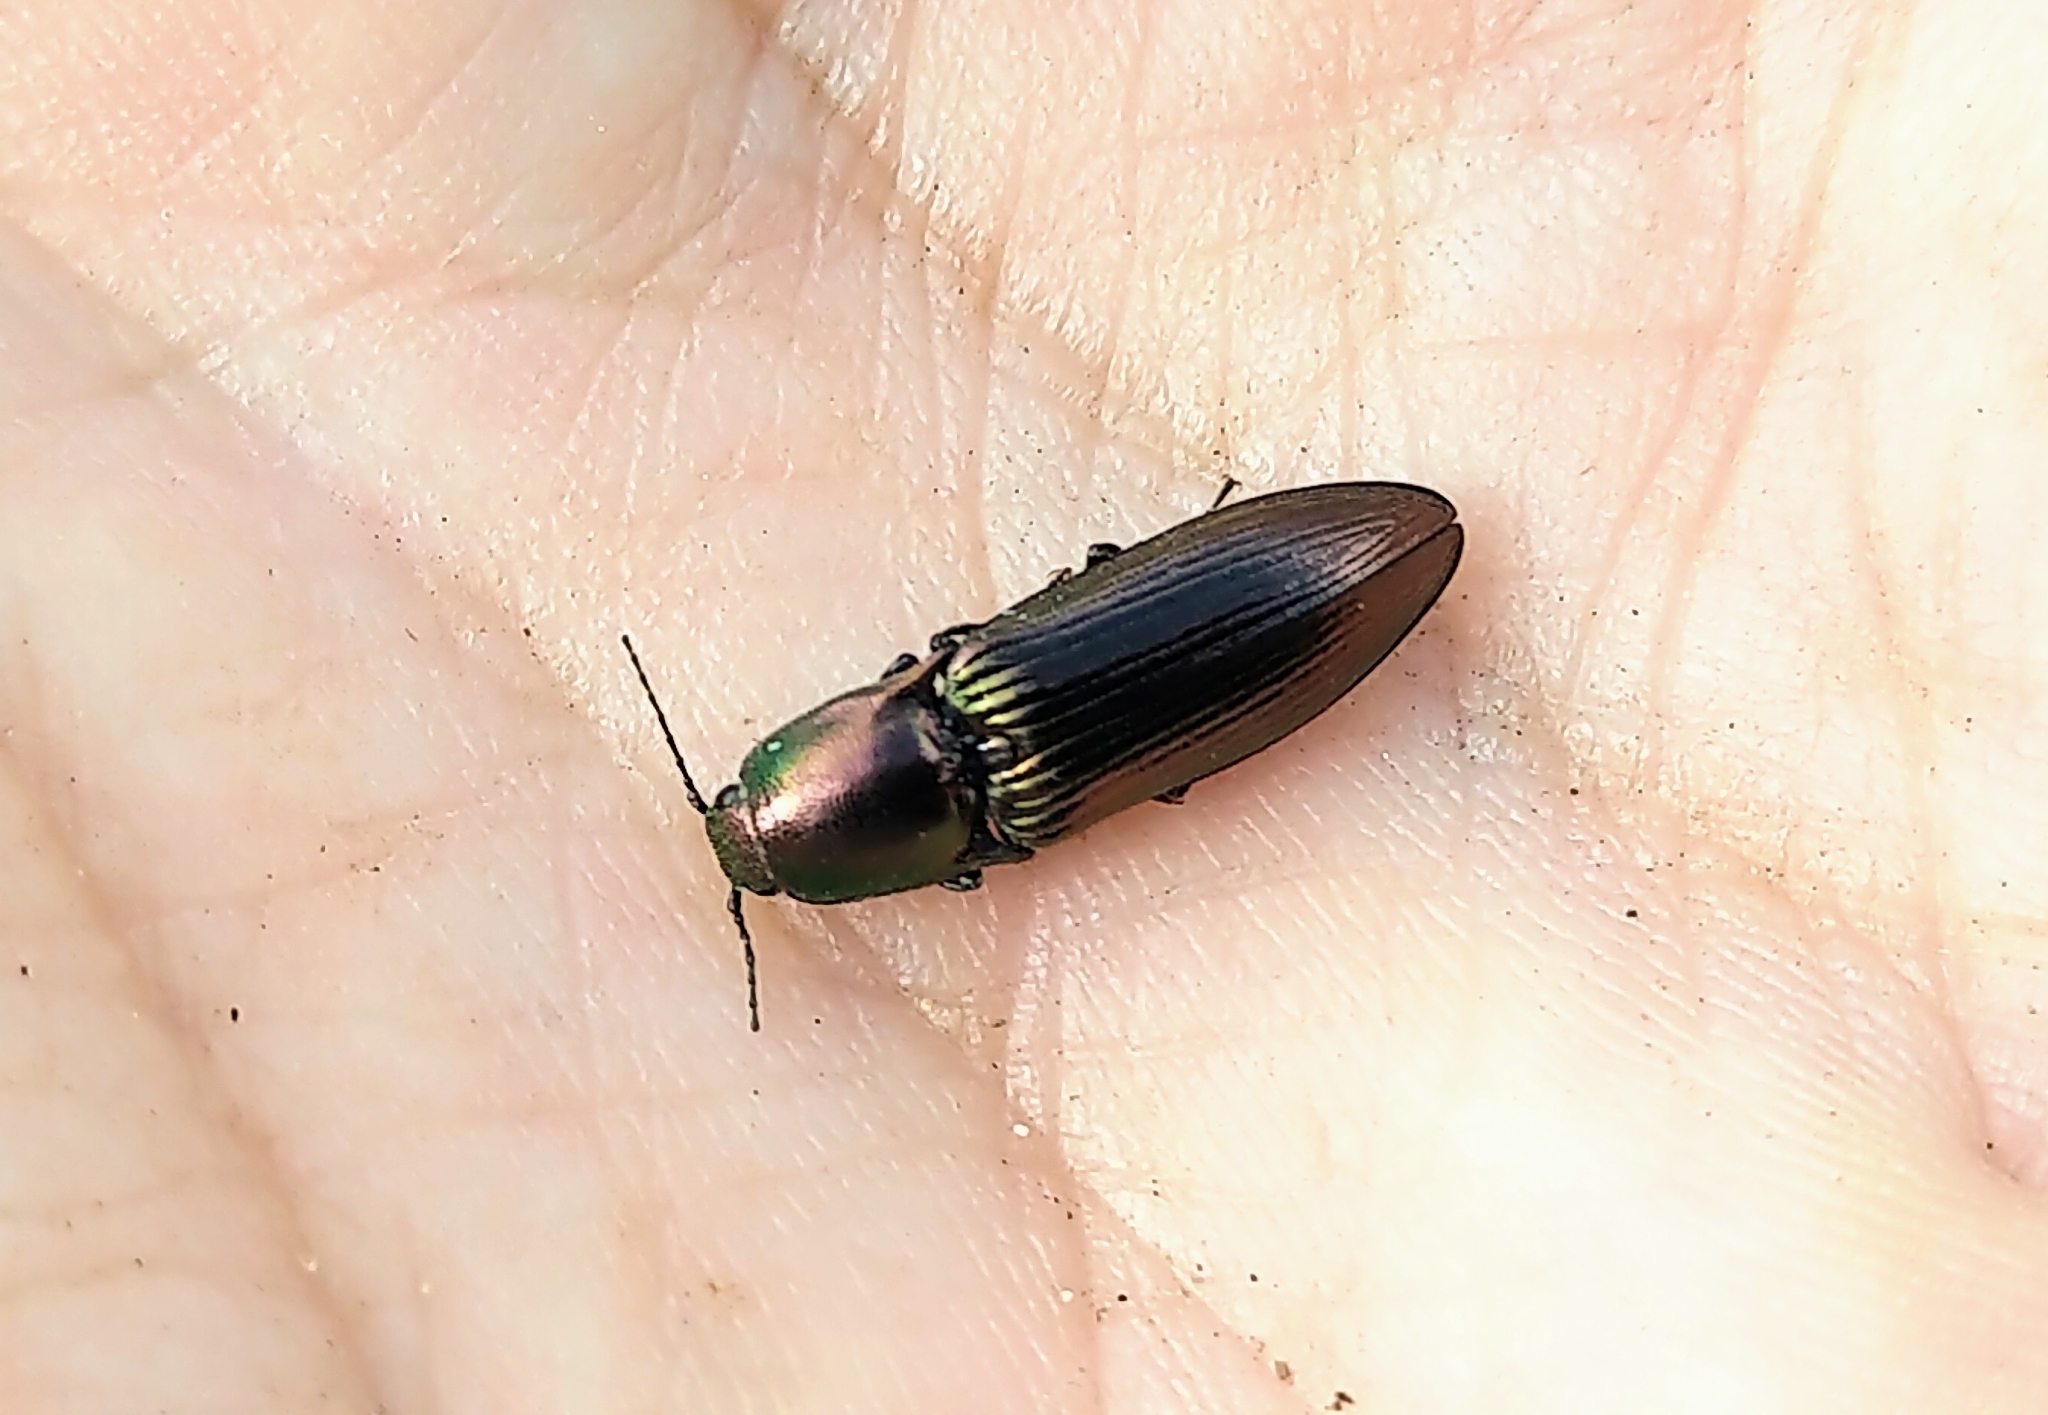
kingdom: Animalia
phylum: Arthropoda
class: Insecta
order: Coleoptera
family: Elateridae
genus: Nitidolimonius
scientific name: Nitidolimonius resplendens
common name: Resplendent click beetle
